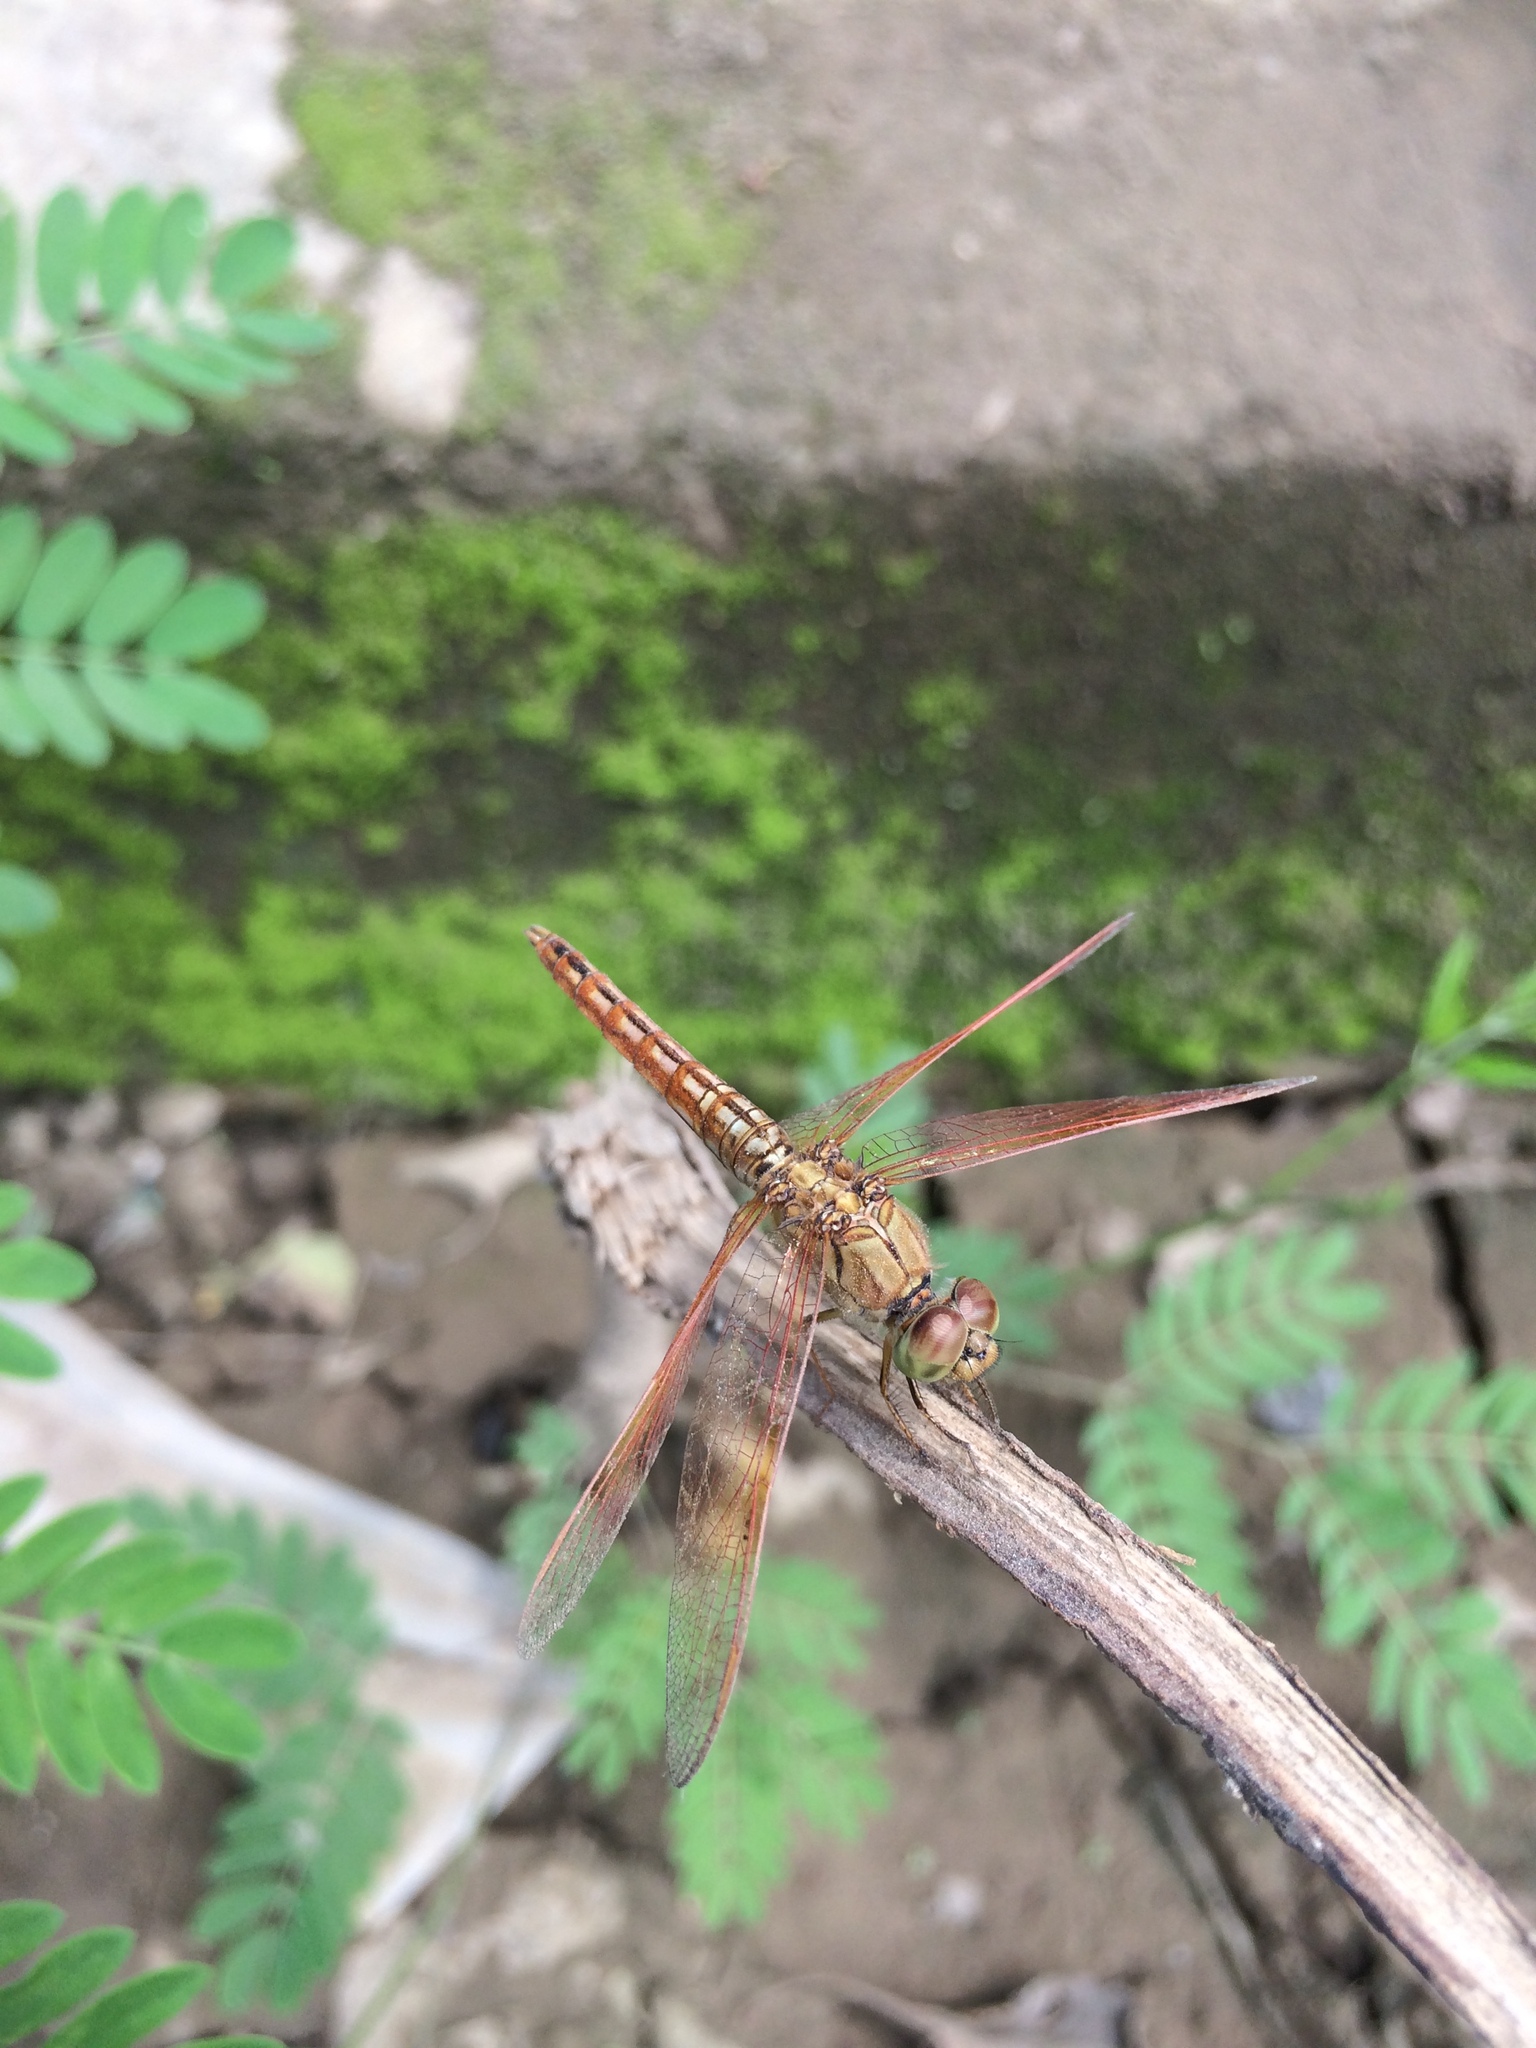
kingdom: Animalia
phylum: Arthropoda
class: Insecta
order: Odonata
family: Libellulidae
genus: Brachythemis
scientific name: Brachythemis contaminata
